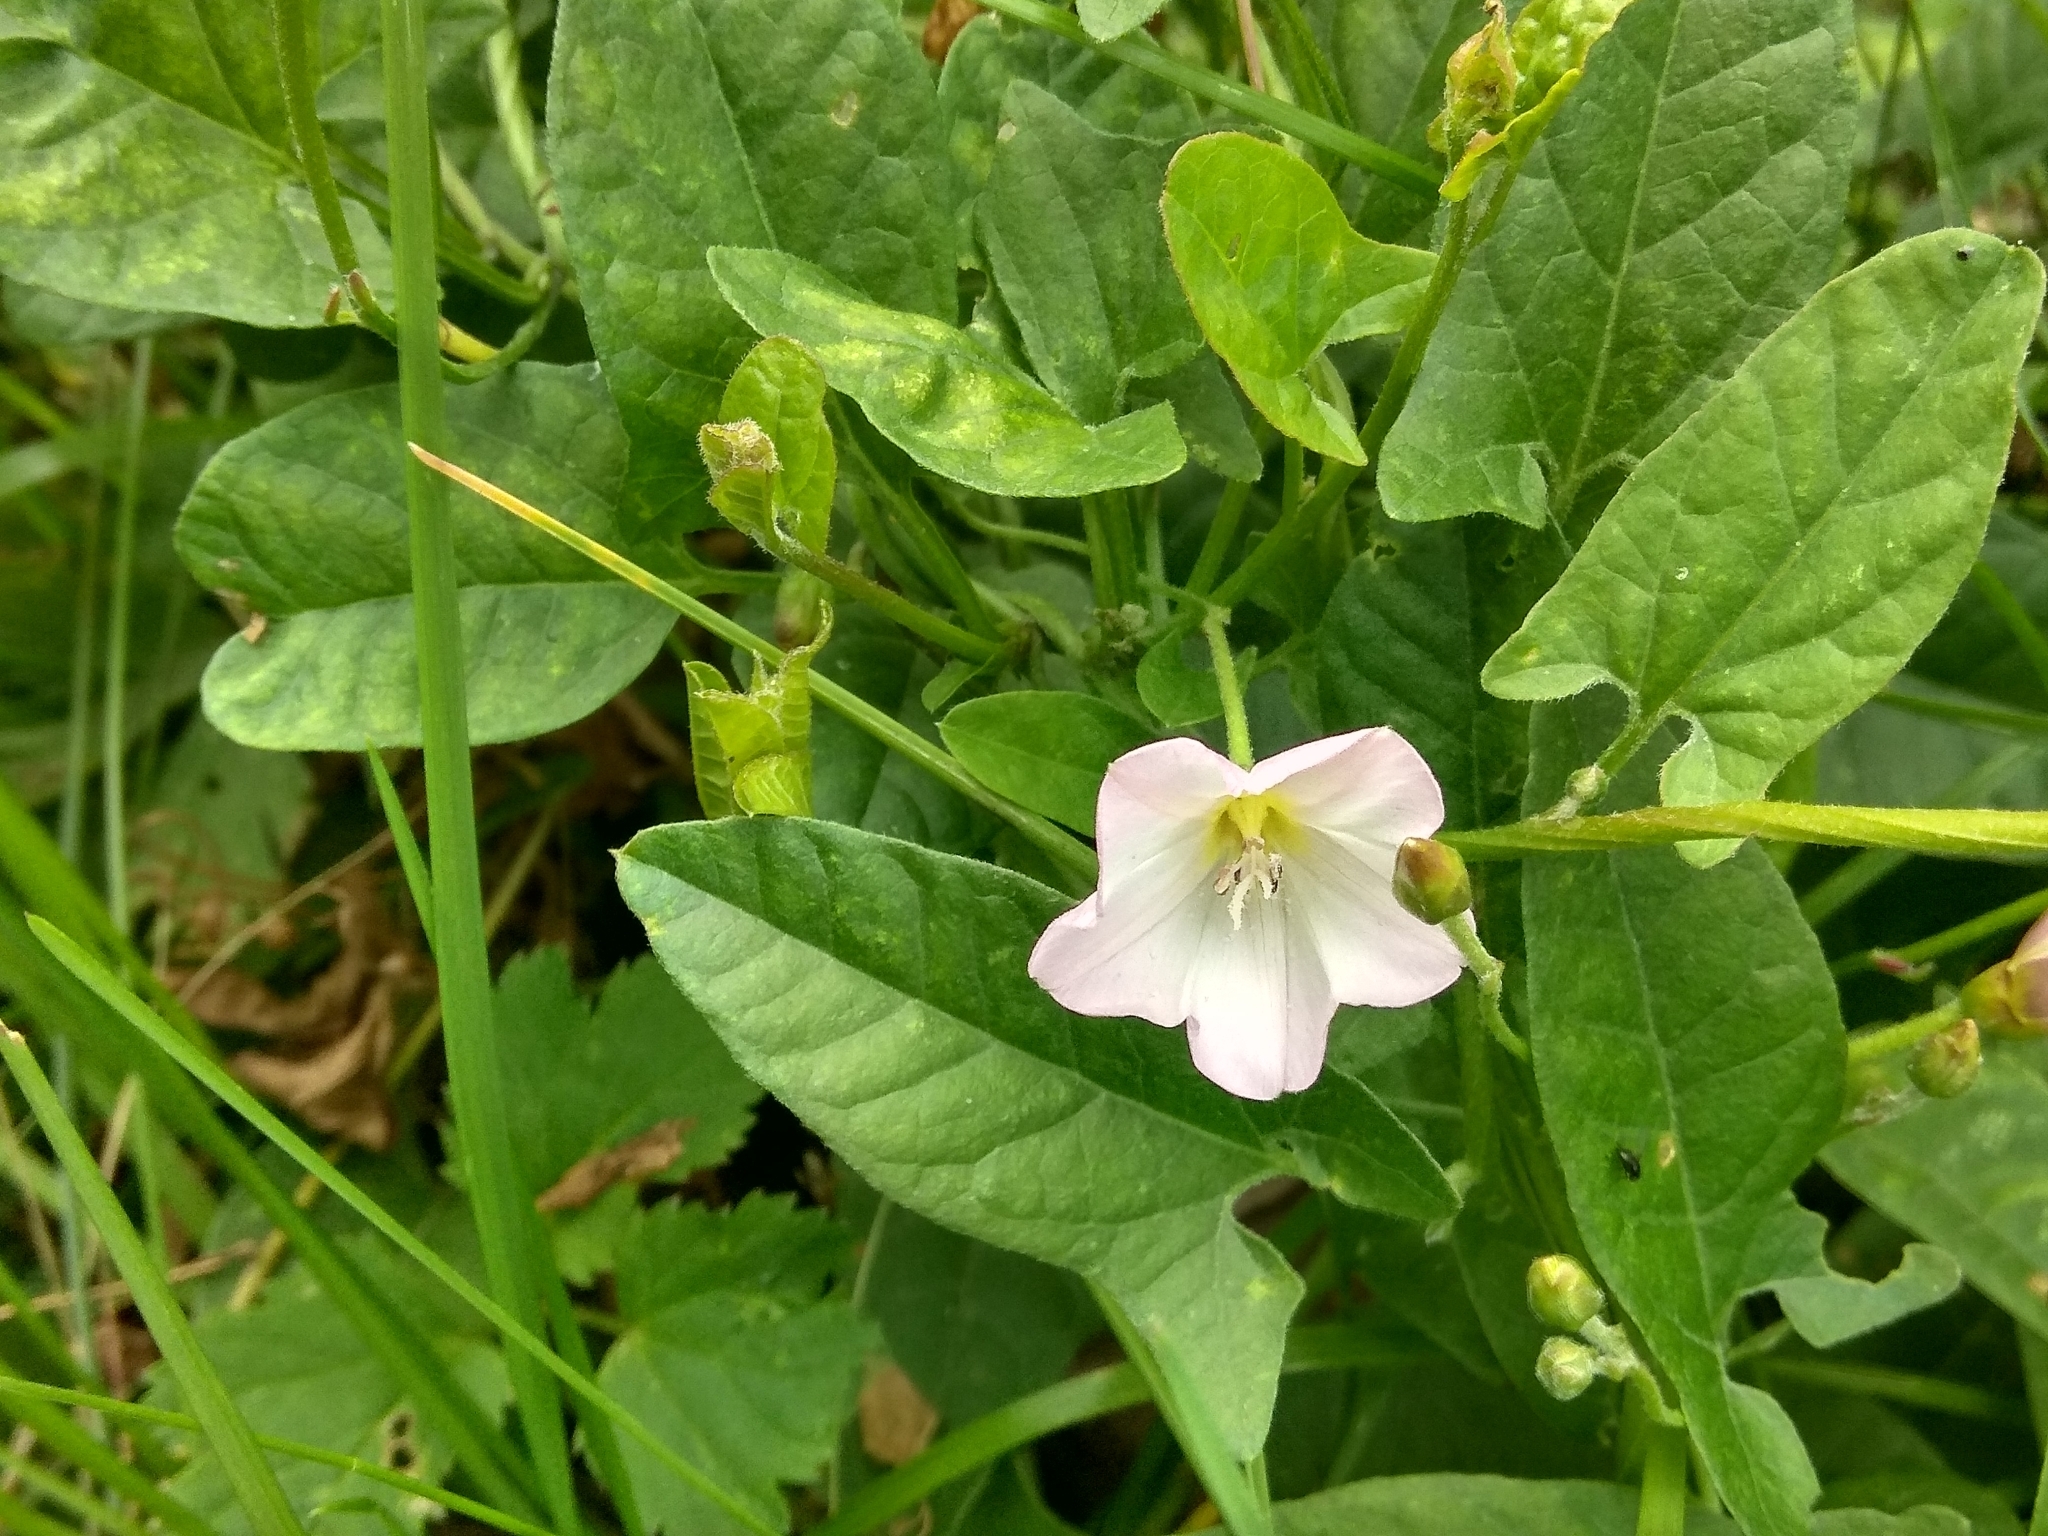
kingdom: Plantae
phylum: Tracheophyta
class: Magnoliopsida
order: Solanales
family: Convolvulaceae
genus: Convolvulus
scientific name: Convolvulus arvensis
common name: Field bindweed
